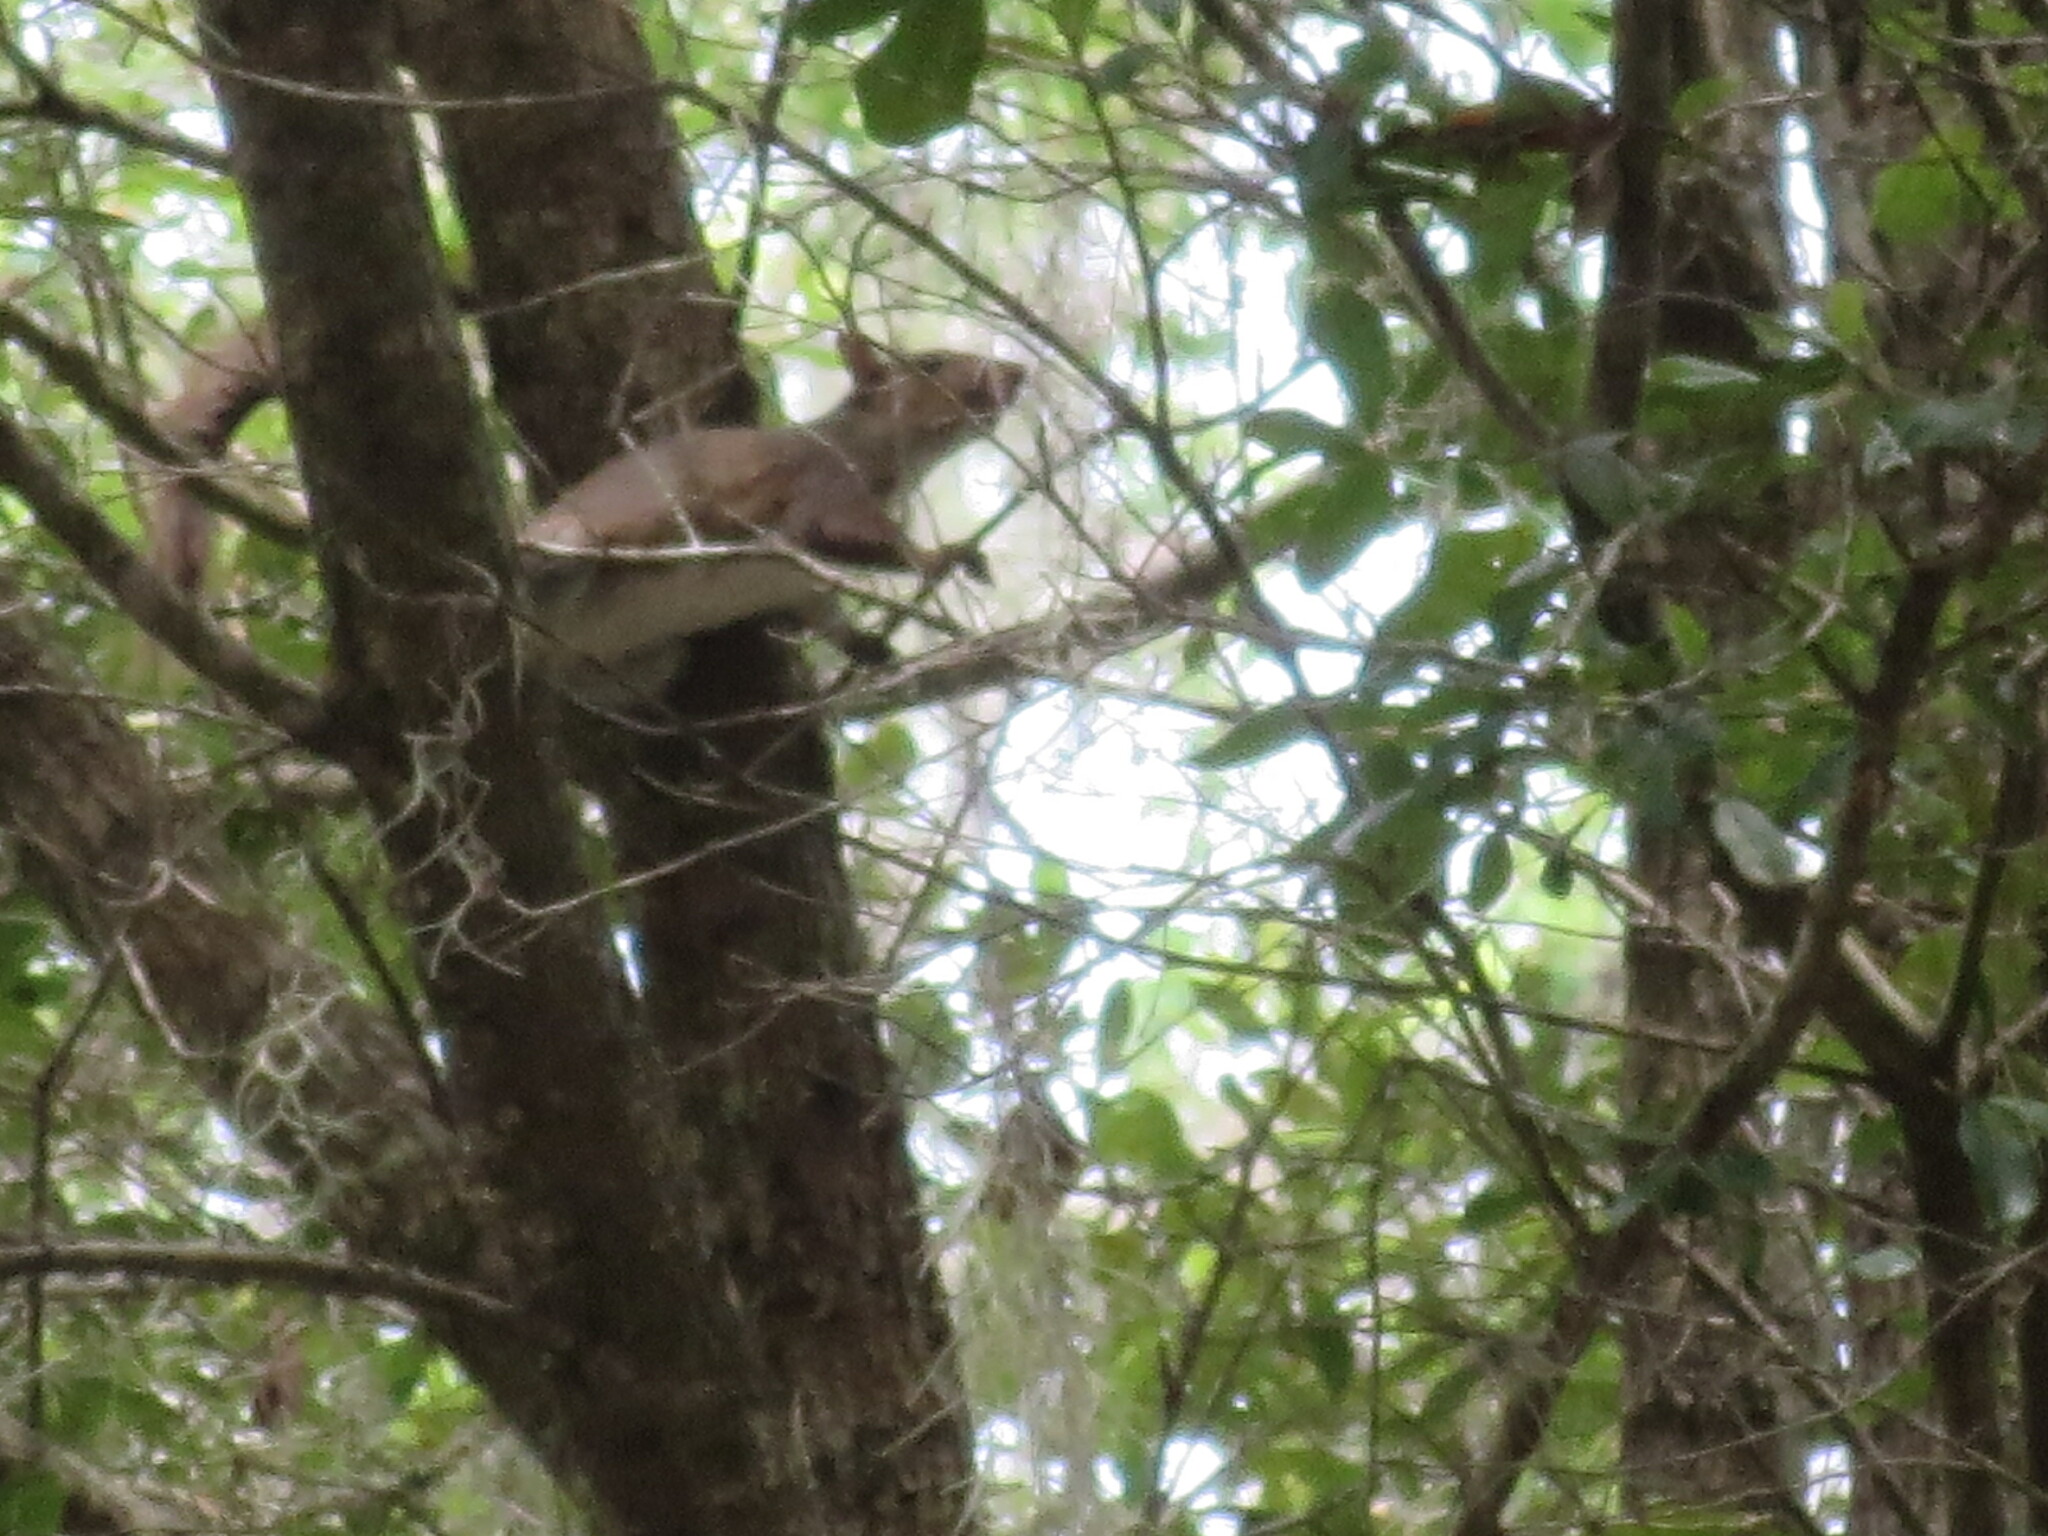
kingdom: Animalia
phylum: Chordata
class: Mammalia
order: Rodentia
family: Sciuridae
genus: Sciurus
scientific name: Sciurus carolinensis
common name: Eastern gray squirrel
